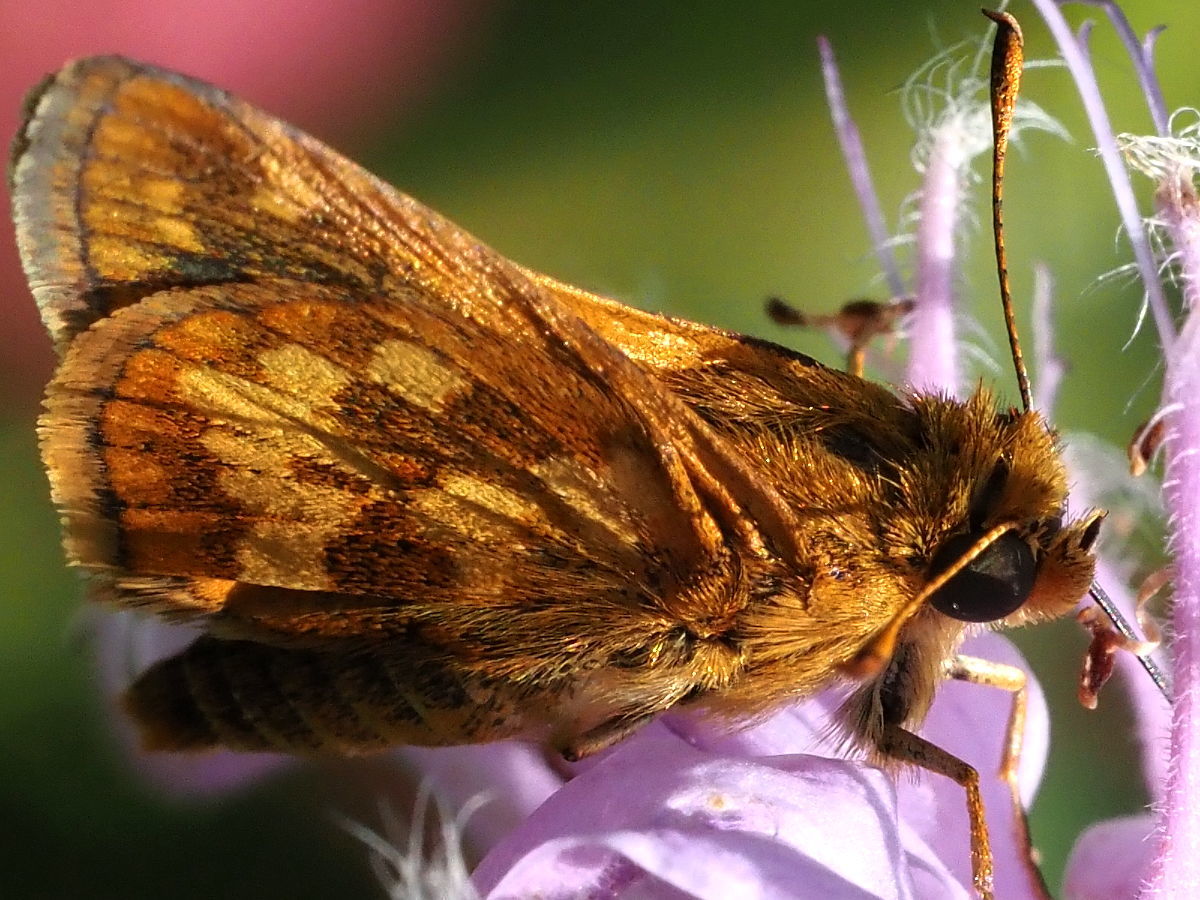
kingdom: Animalia
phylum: Arthropoda
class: Insecta
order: Lepidoptera
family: Hesperiidae
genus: Polites
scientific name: Polites coras
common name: Peck's skipper
